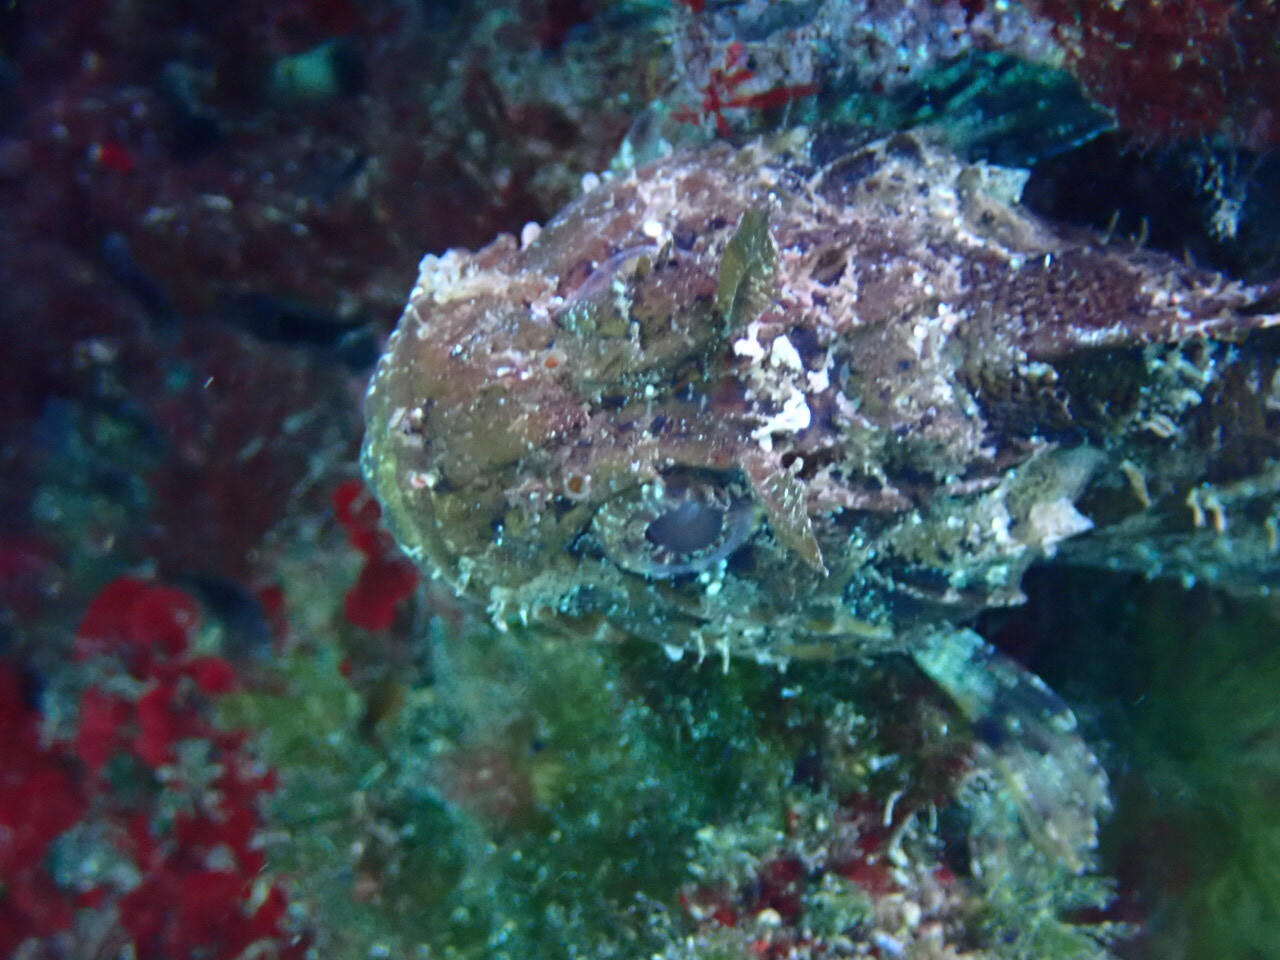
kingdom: Animalia
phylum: Chordata
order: Scorpaeniformes
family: Scorpaenidae
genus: Scorpaena
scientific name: Scorpaena porcus
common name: Black scorpionfish
